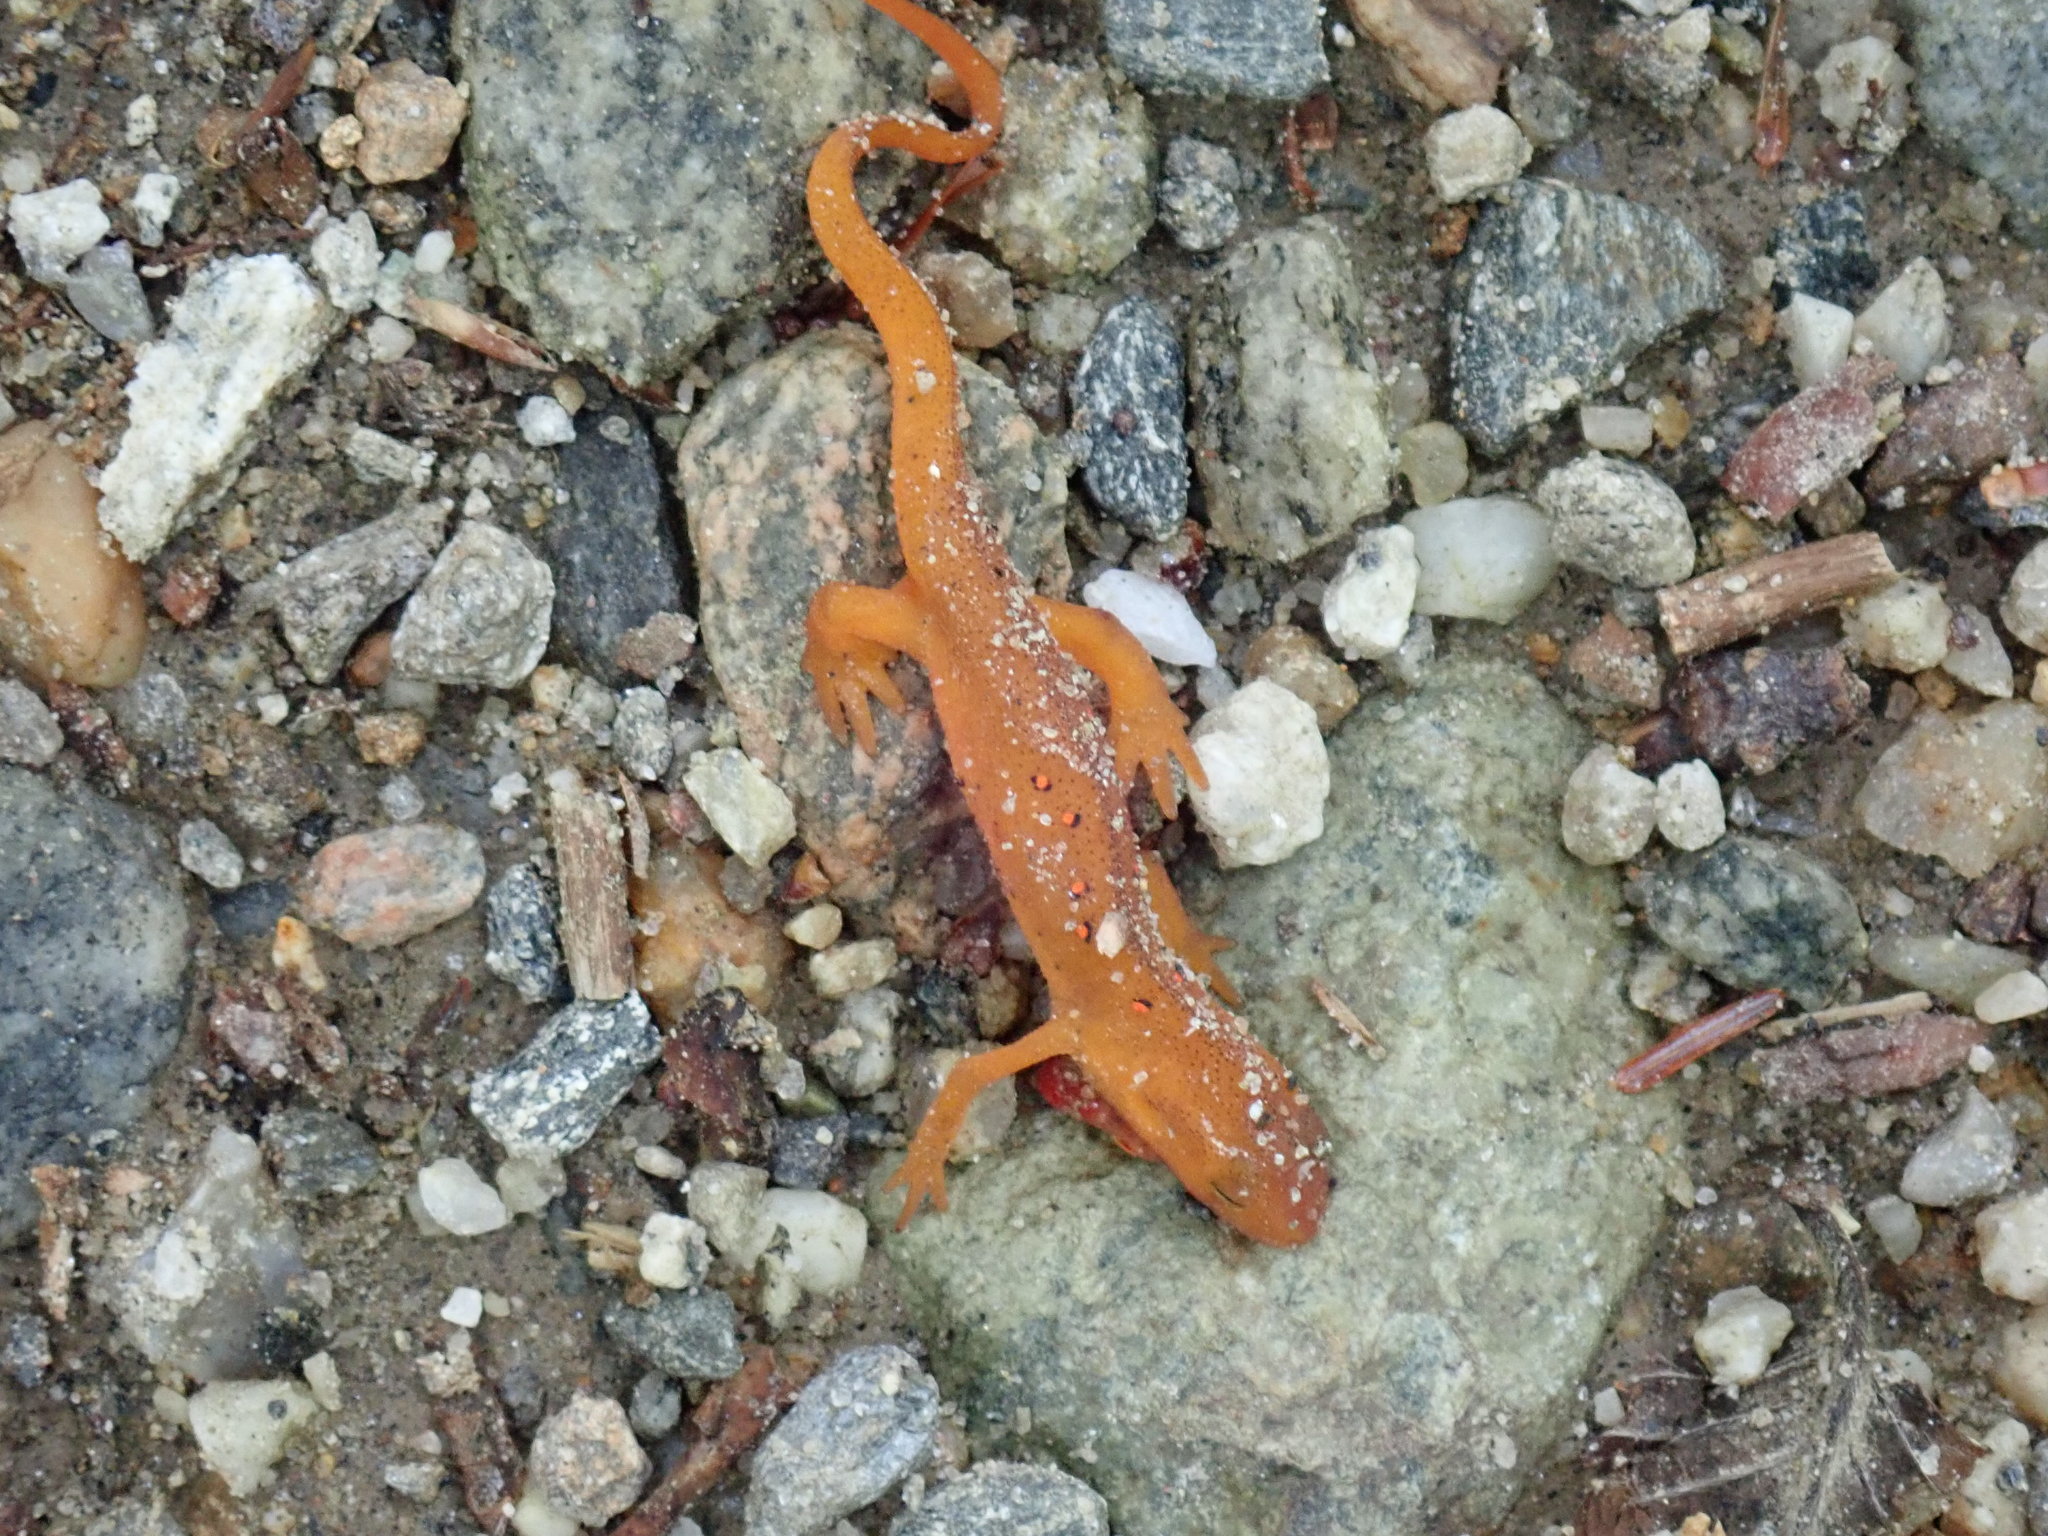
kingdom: Animalia
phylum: Chordata
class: Amphibia
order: Caudata
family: Salamandridae
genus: Notophthalmus
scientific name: Notophthalmus viridescens
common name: Eastern newt
